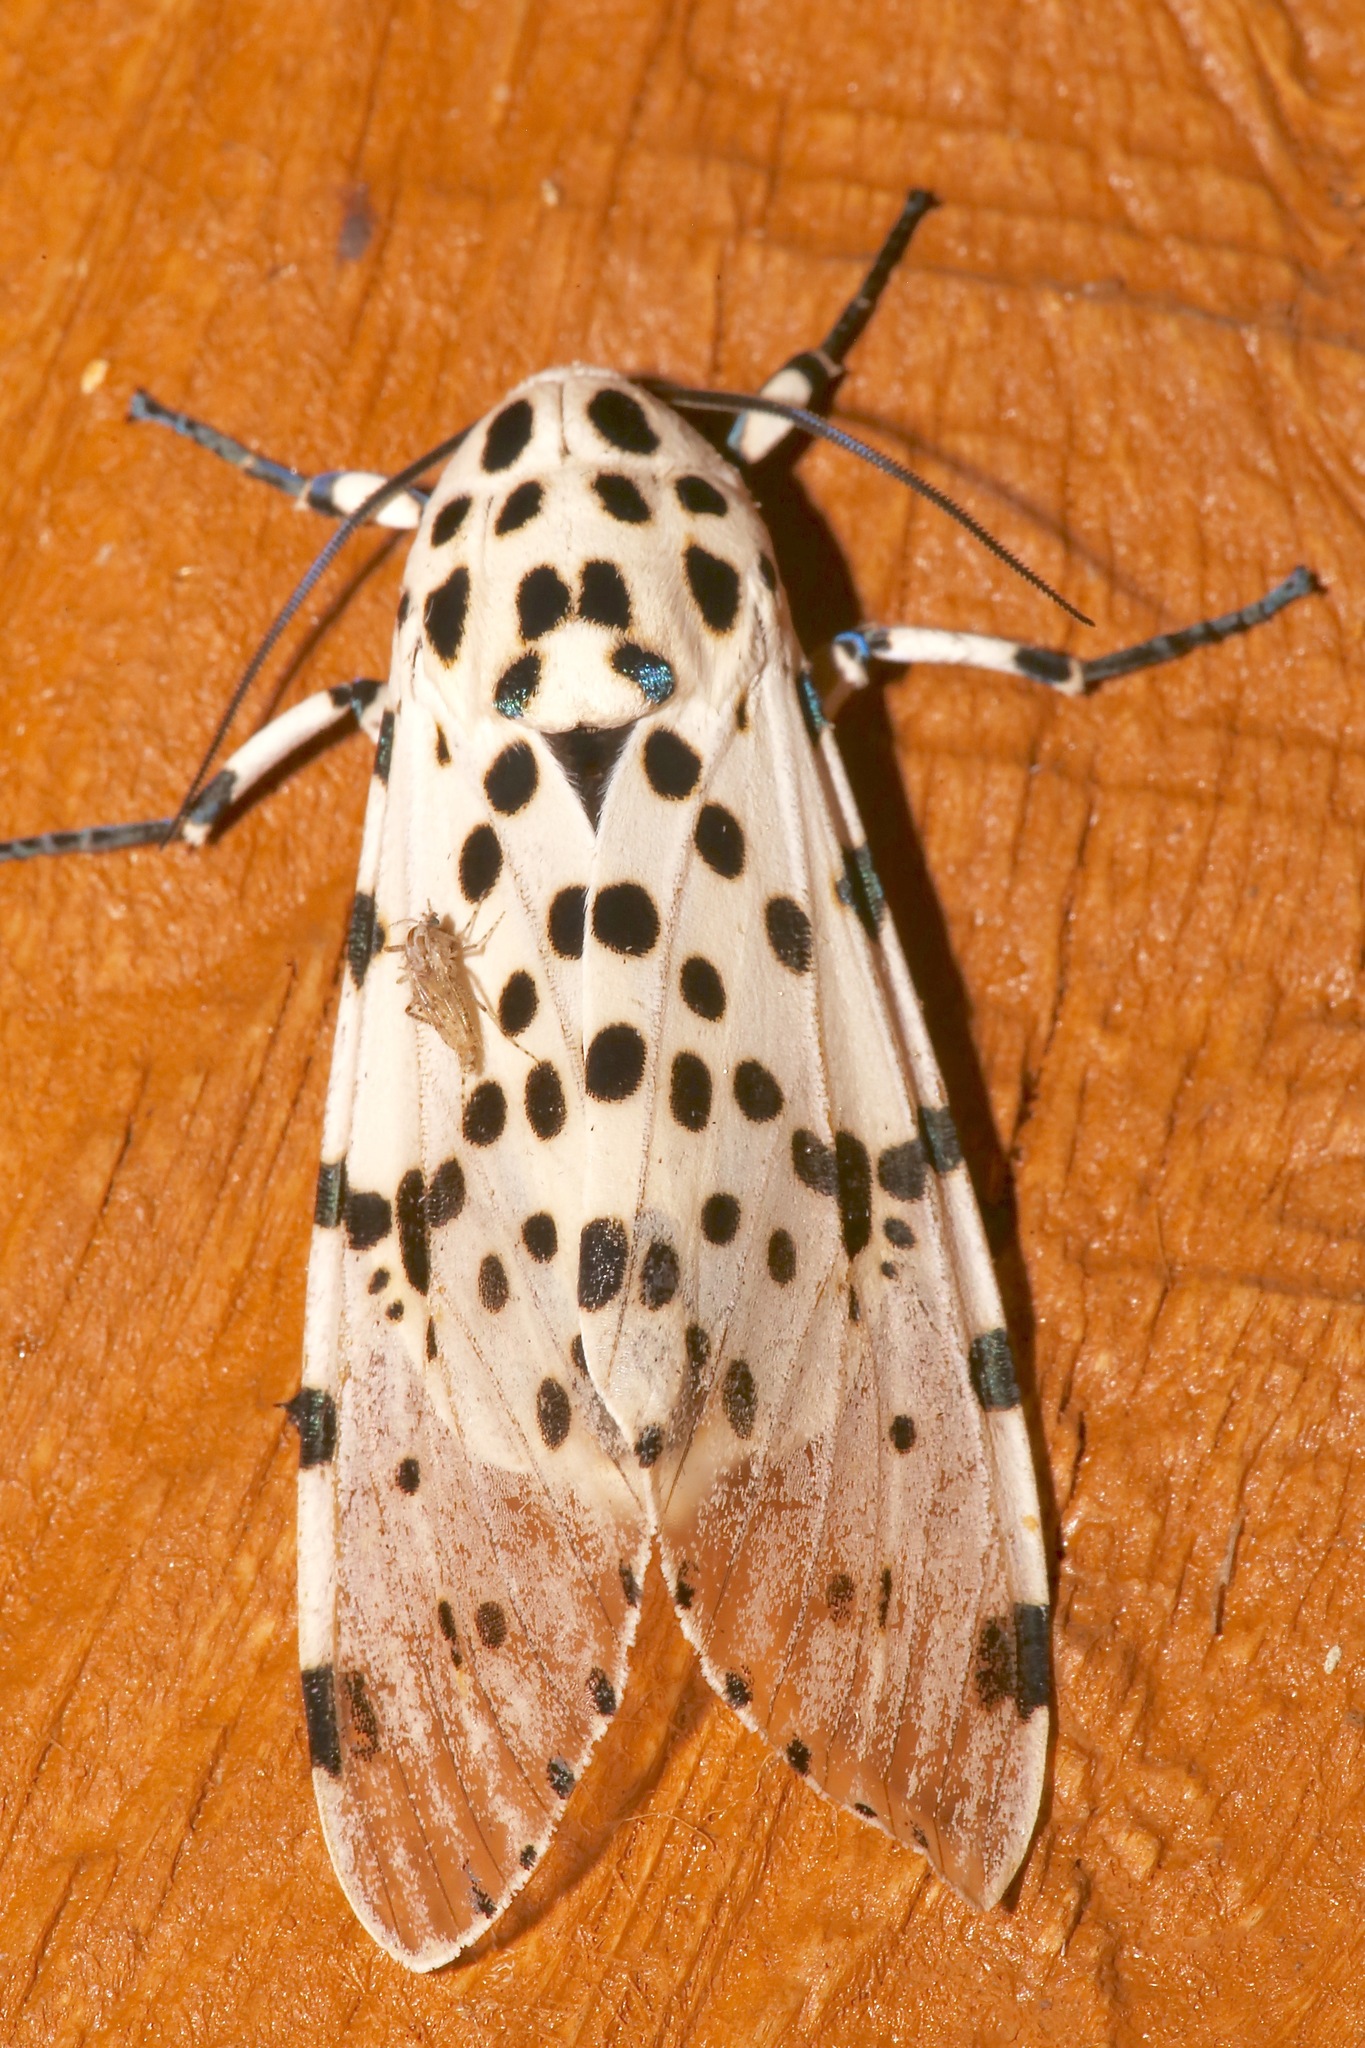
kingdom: Animalia
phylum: Arthropoda
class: Insecta
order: Lepidoptera
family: Erebidae
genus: Hypercompe
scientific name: Hypercompe scribonia
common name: Giant leopard moth
